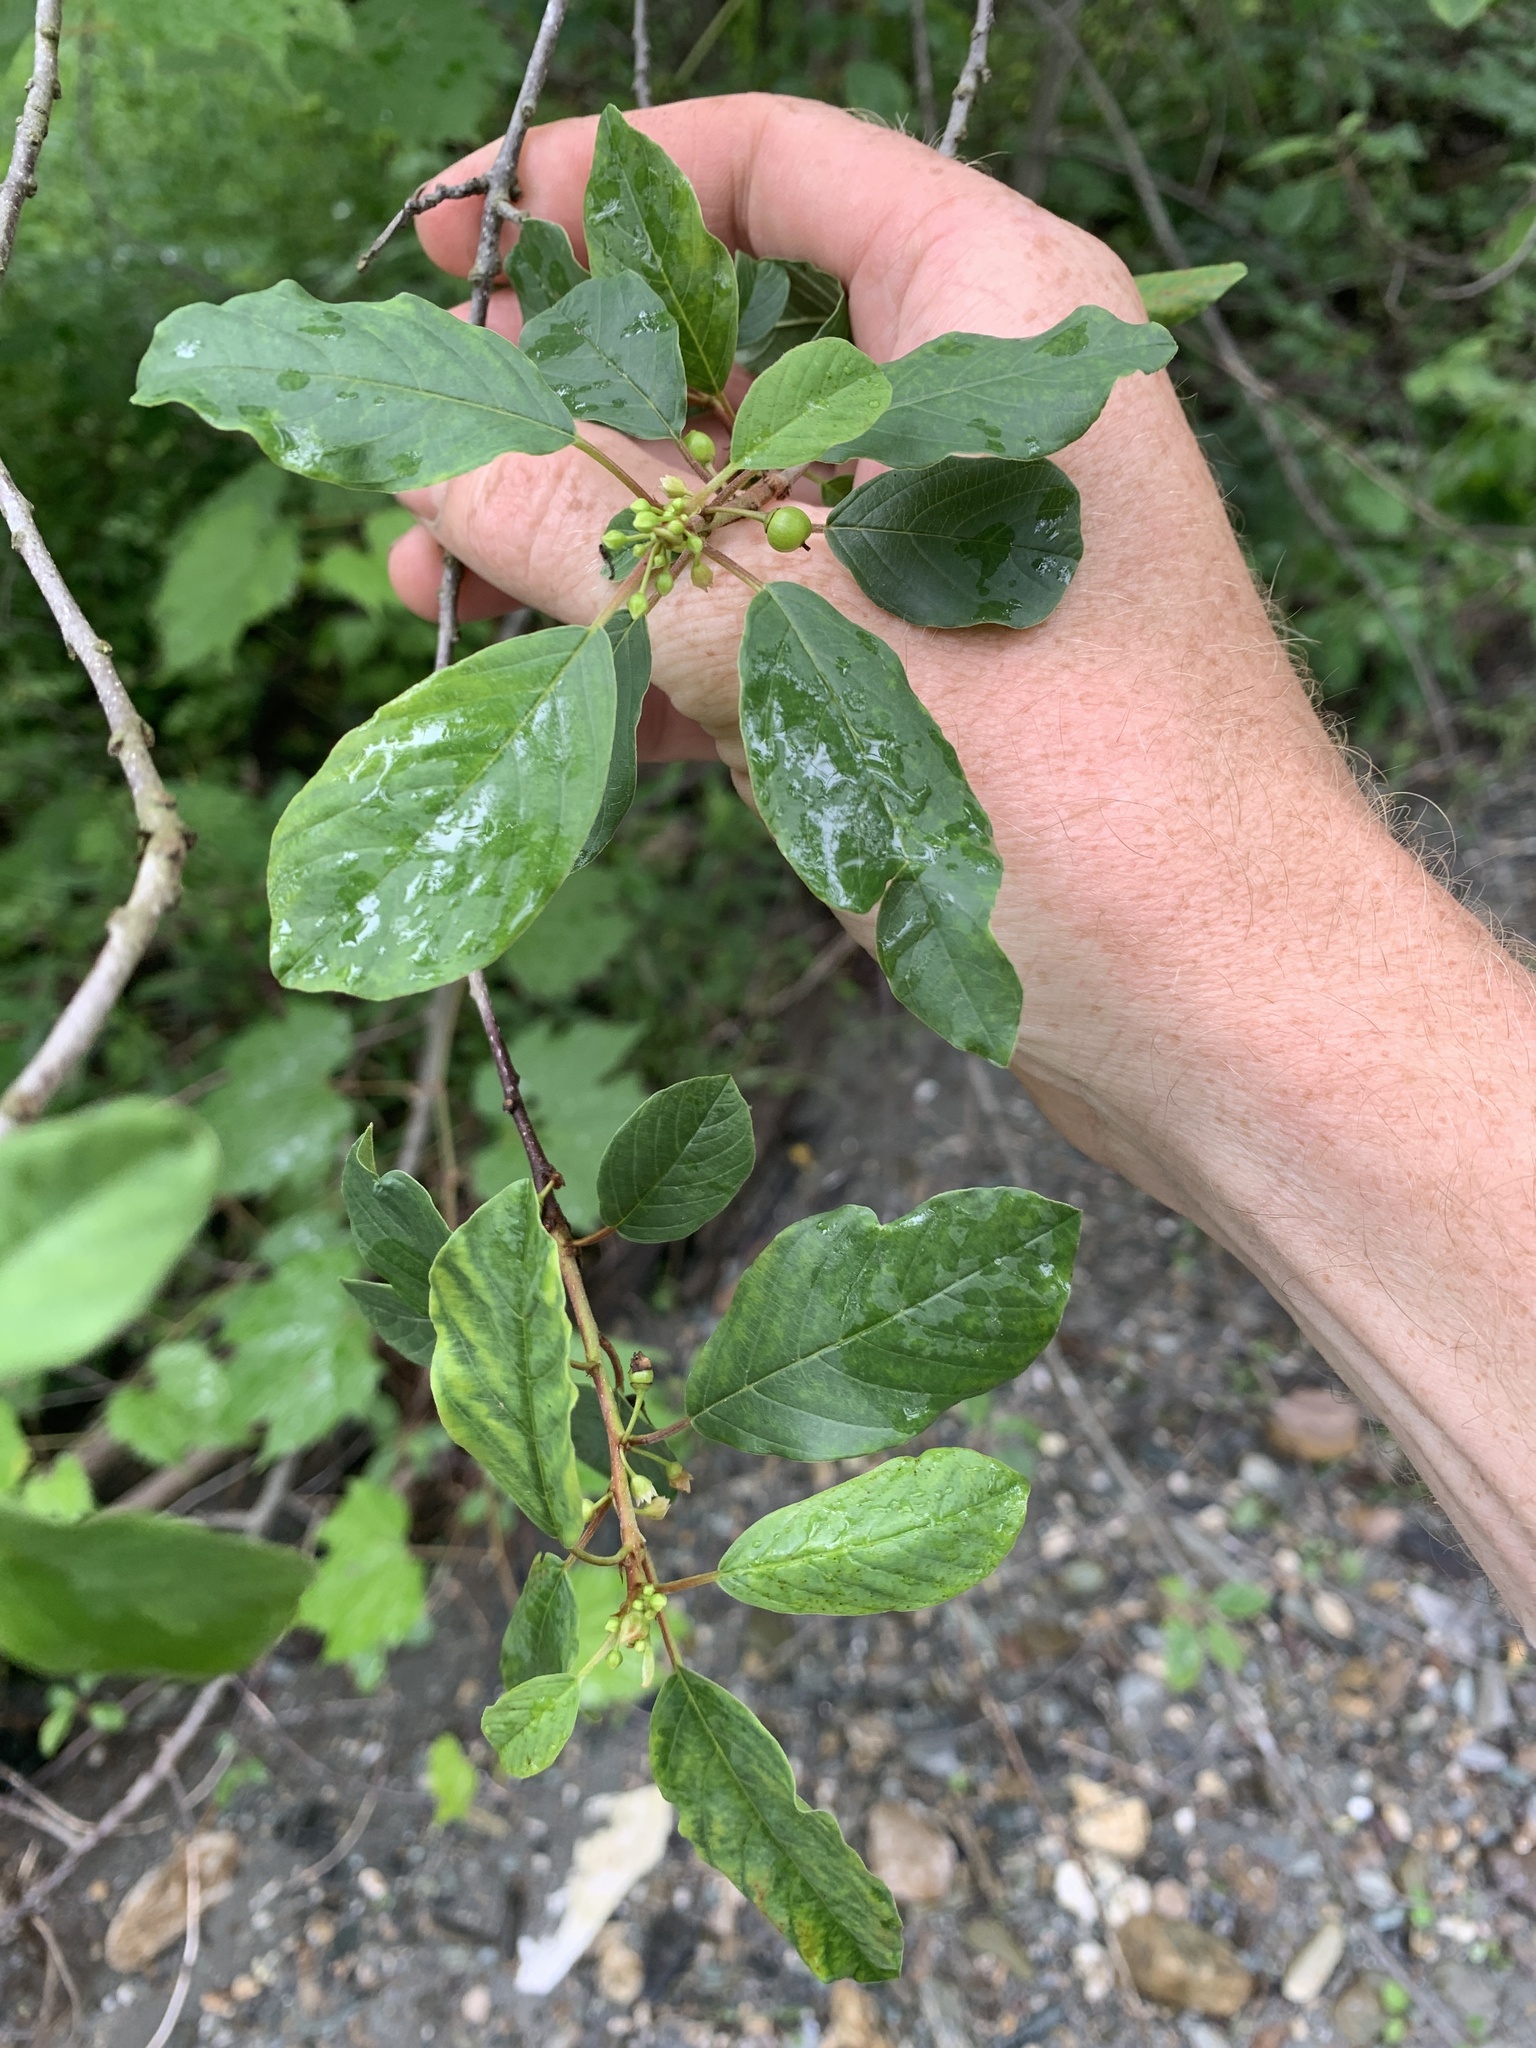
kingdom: Plantae
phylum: Tracheophyta
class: Magnoliopsida
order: Rosales
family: Rhamnaceae
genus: Frangula
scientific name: Frangula alnus
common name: Alder buckthorn
